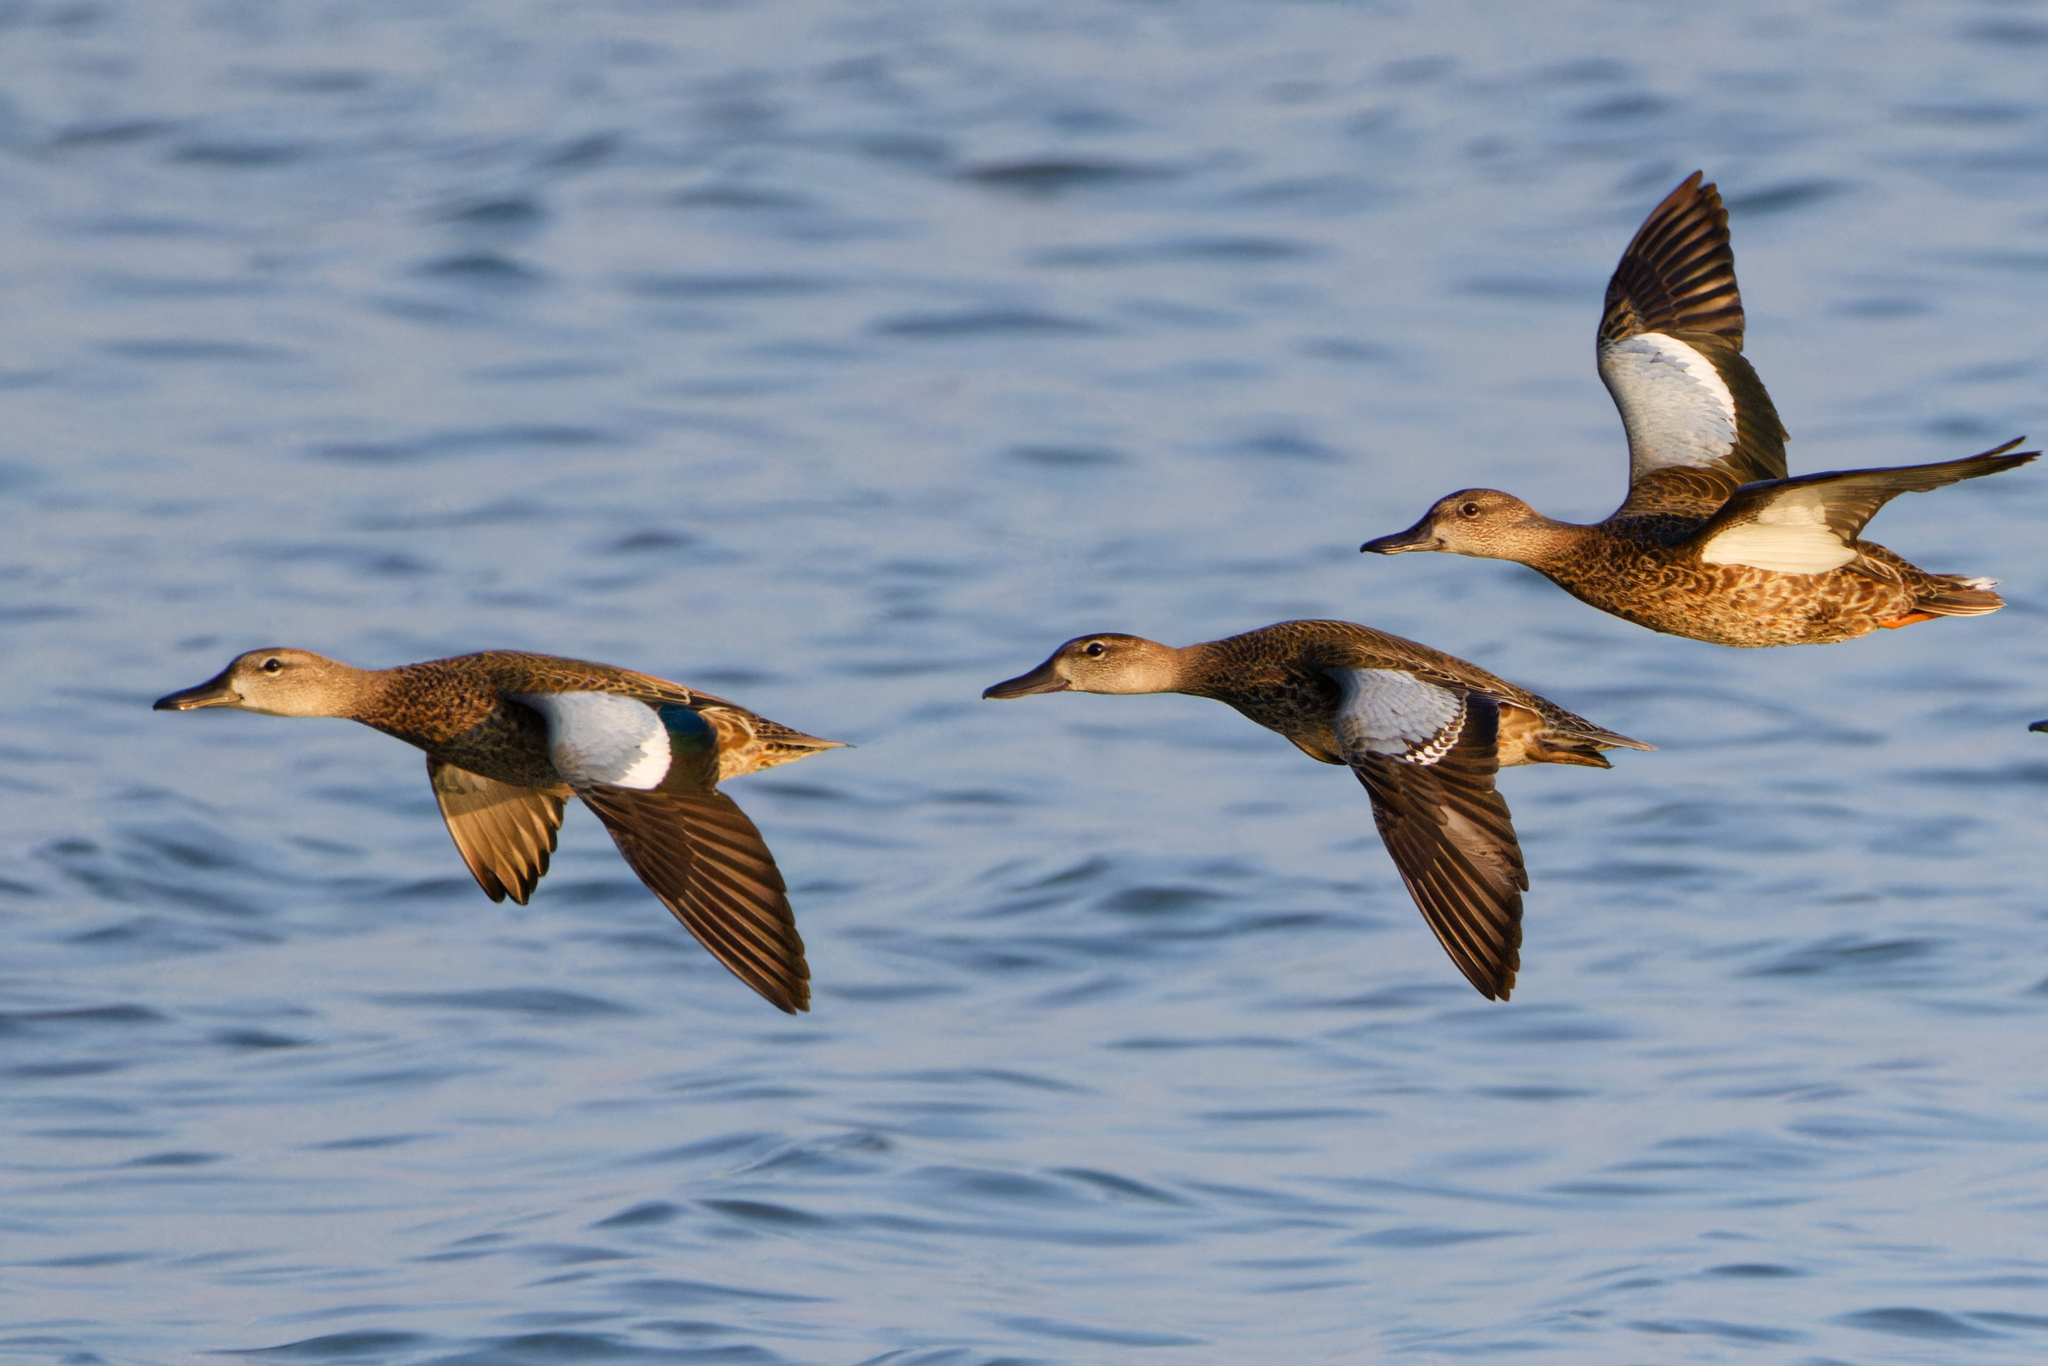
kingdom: Animalia
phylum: Chordata
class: Aves
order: Anseriformes
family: Anatidae
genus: Spatula
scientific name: Spatula discors
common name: Blue-winged teal
